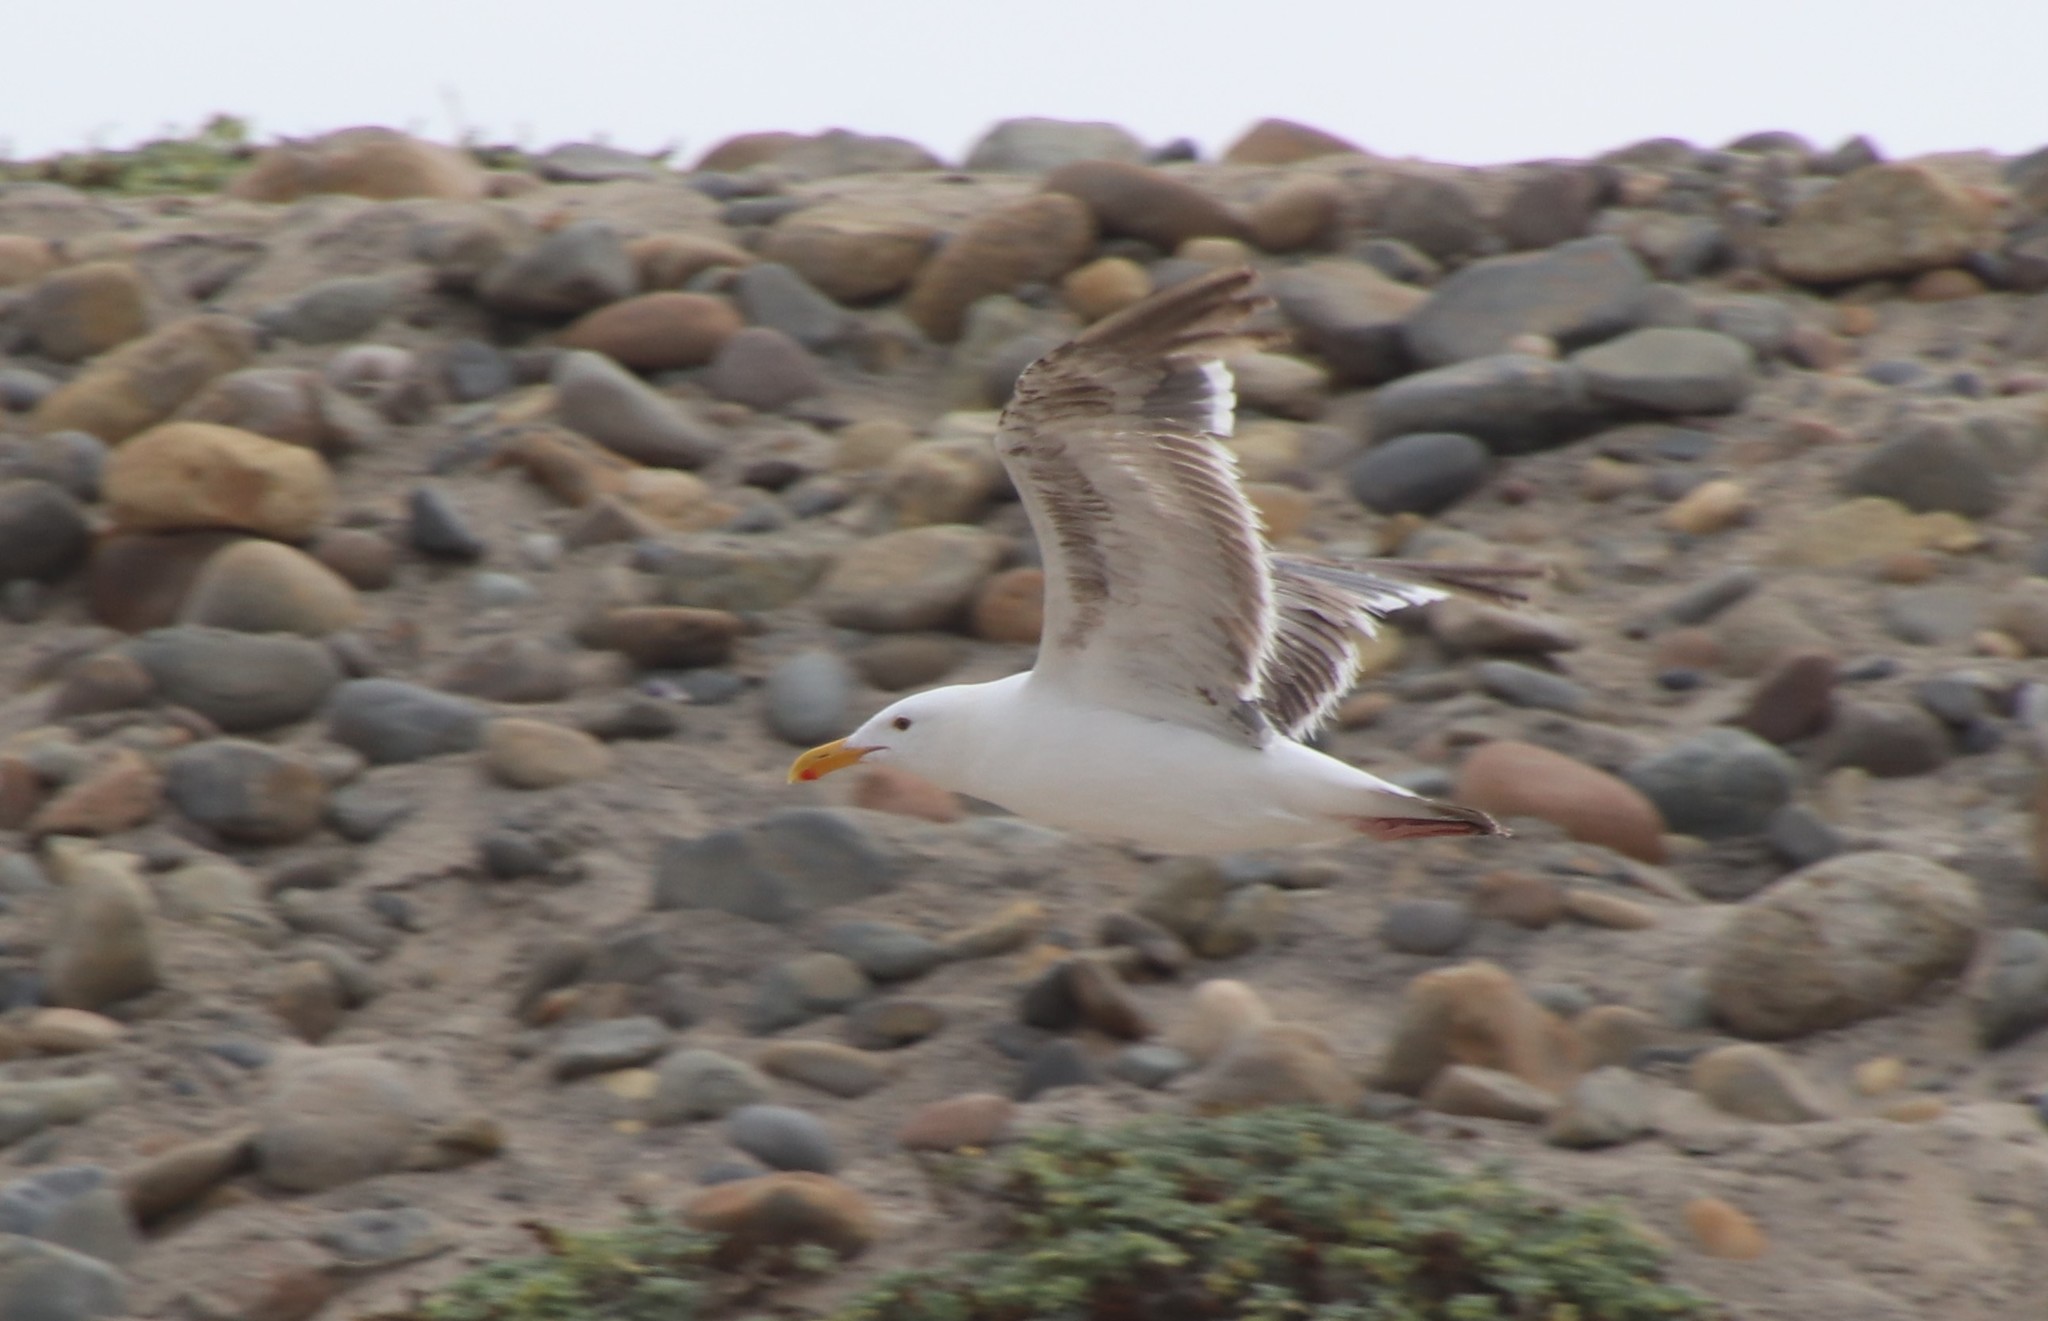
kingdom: Animalia
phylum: Chordata
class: Aves
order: Charadriiformes
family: Laridae
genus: Larus
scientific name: Larus occidentalis
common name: Western gull
